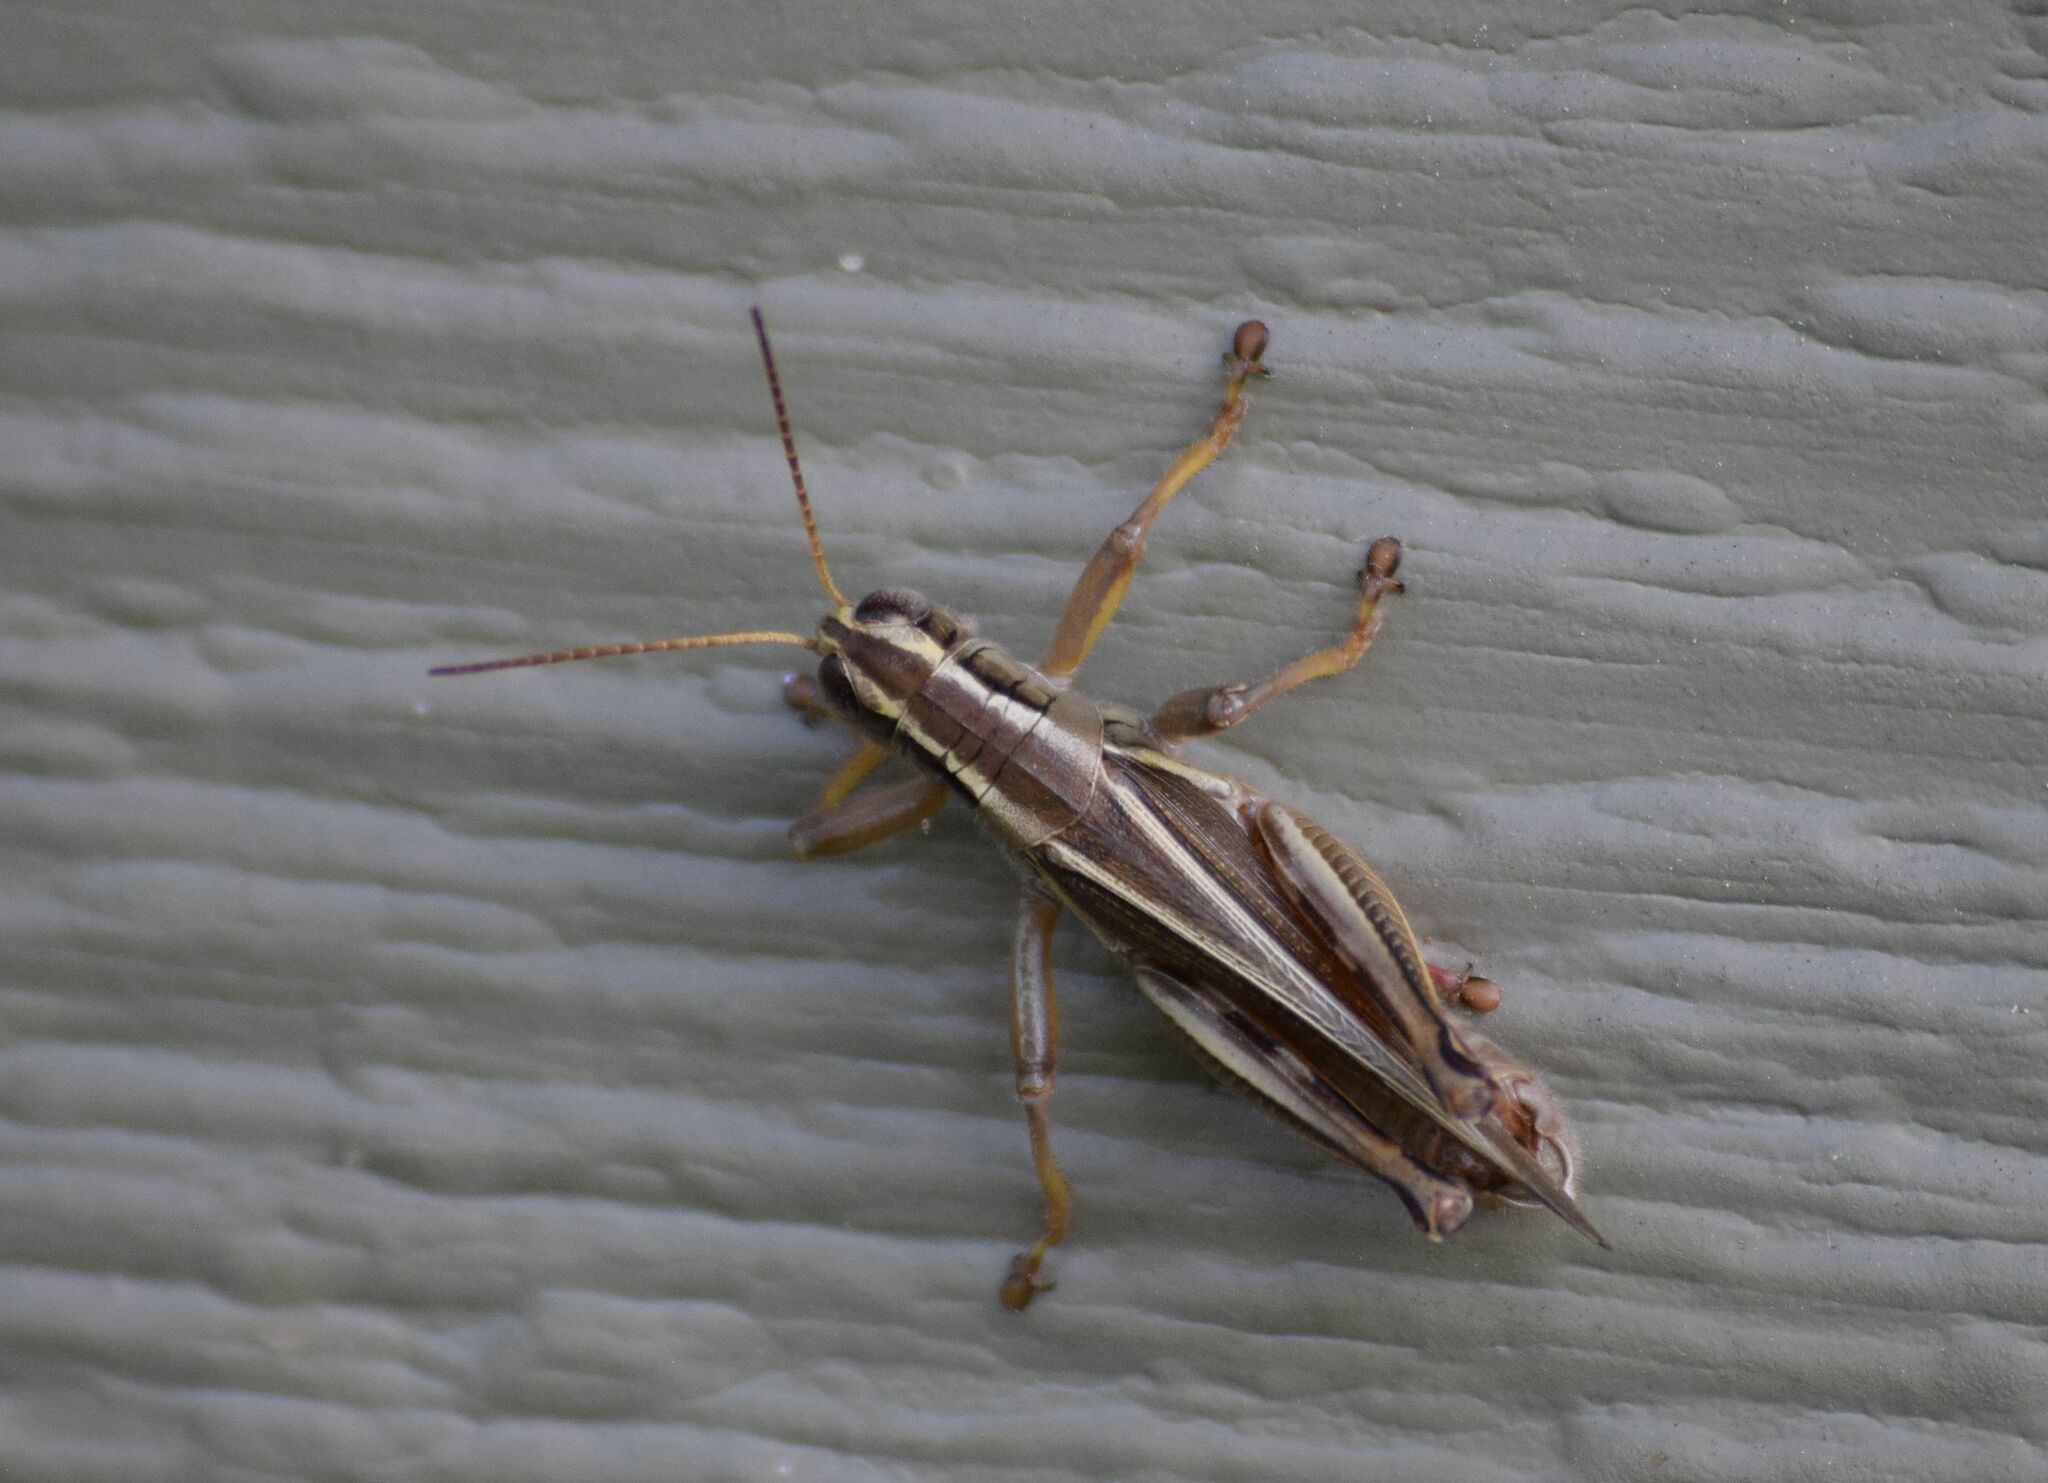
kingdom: Animalia
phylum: Arthropoda
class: Insecta
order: Orthoptera
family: Acrididae
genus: Melanoplus
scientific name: Melanoplus bivittatus
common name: Two-striped grasshopper
